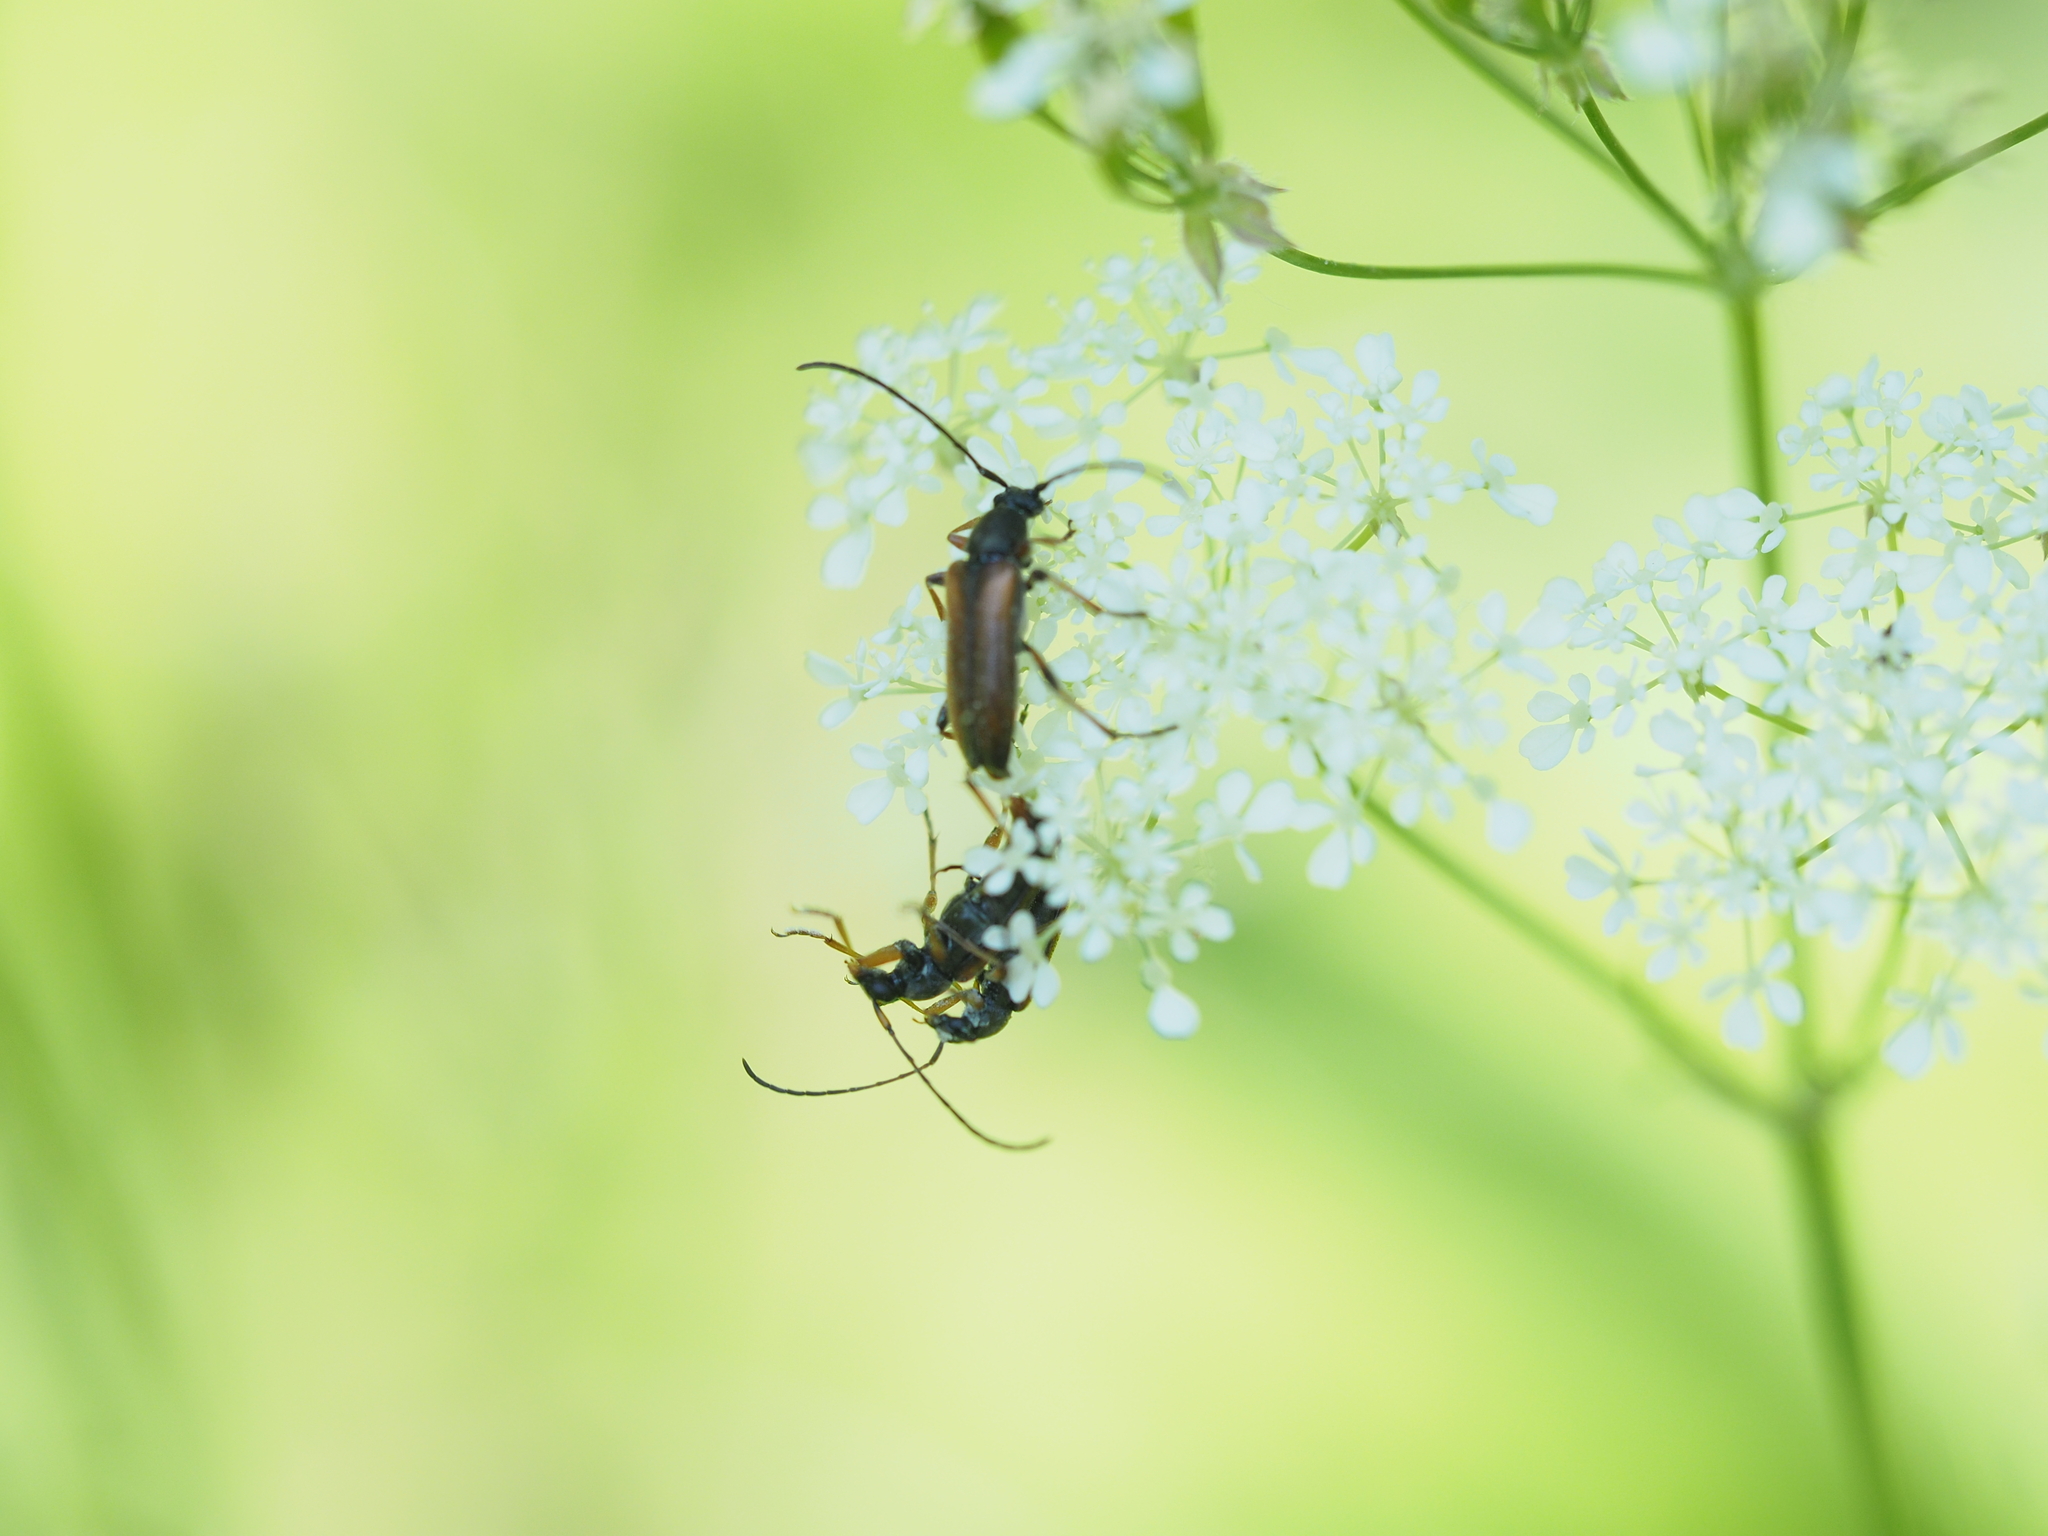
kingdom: Animalia
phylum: Arthropoda
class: Insecta
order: Coleoptera
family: Cerambycidae
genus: Alosterna
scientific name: Alosterna tabacicolor
